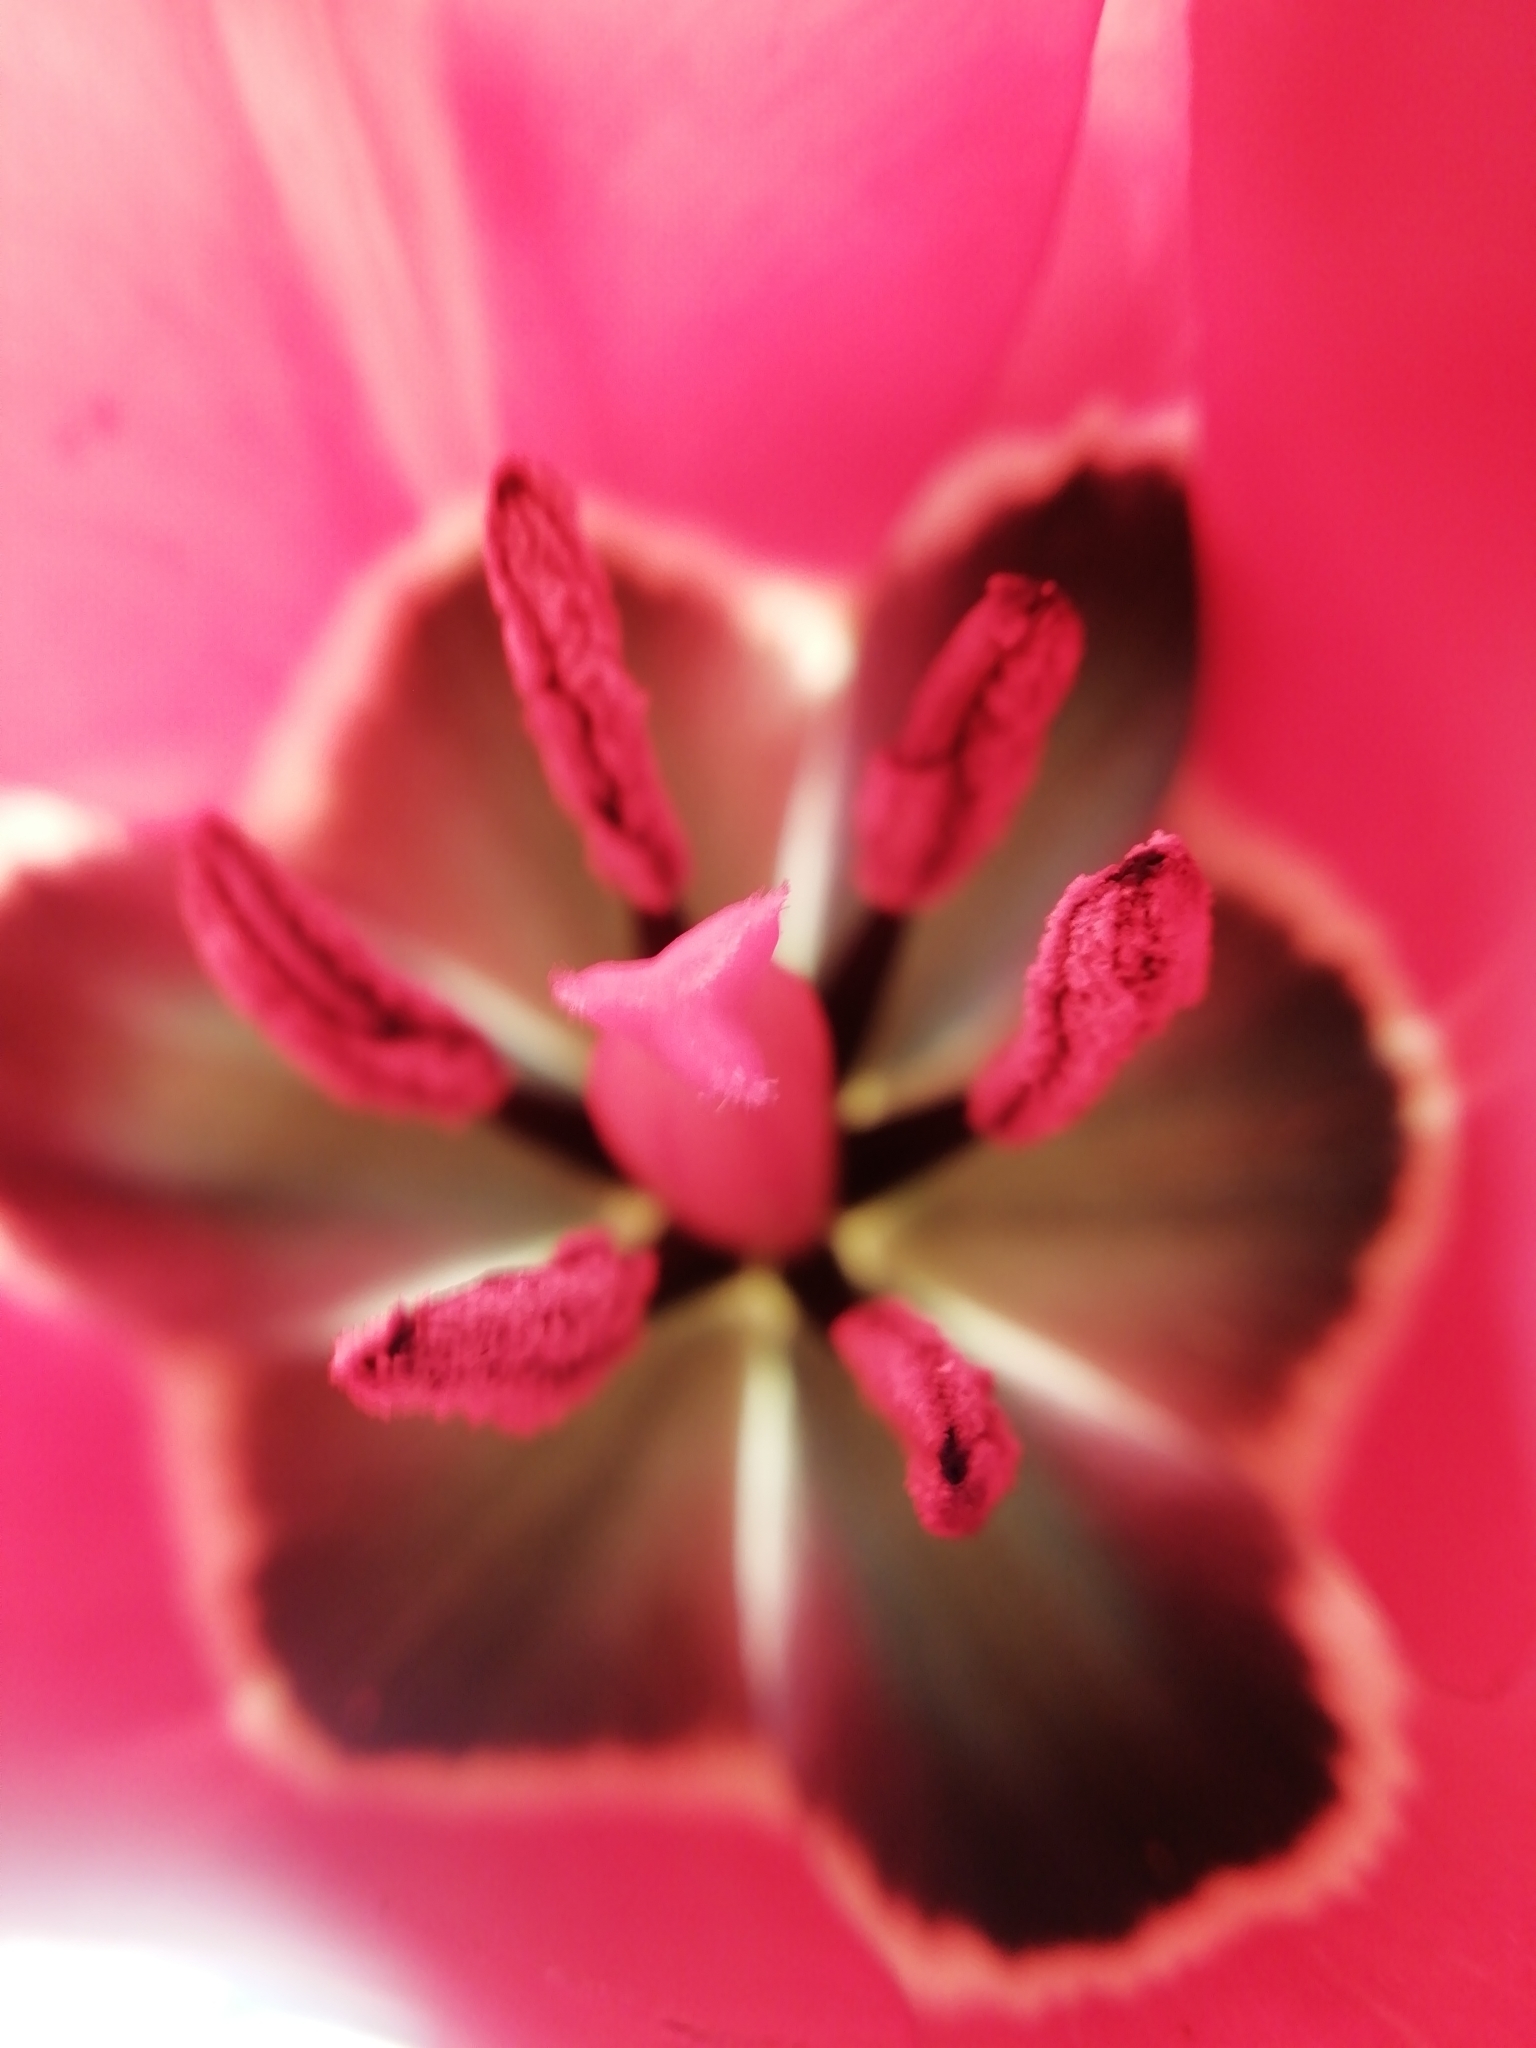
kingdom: Plantae
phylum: Tracheophyta
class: Liliopsida
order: Liliales
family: Liliaceae
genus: Tulipa
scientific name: Tulipa agenensis
